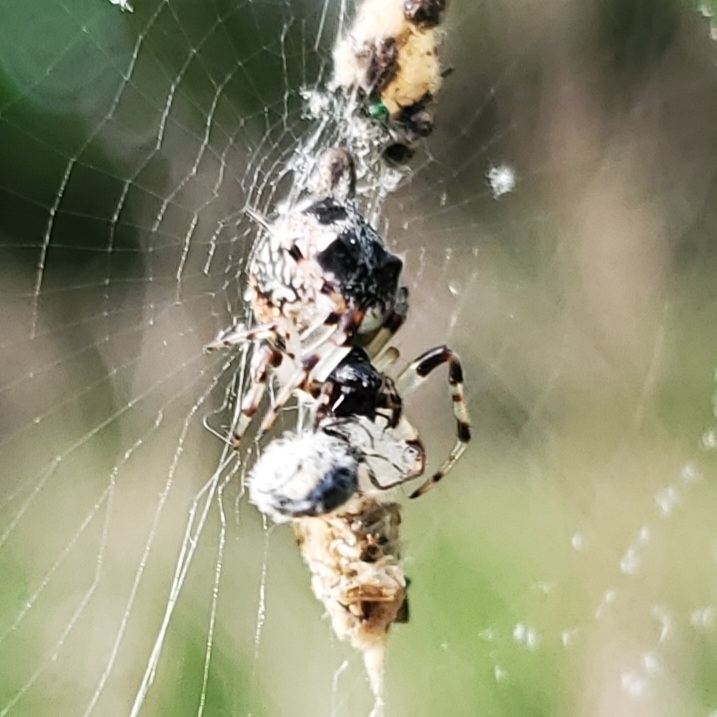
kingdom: Animalia
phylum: Arthropoda
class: Arachnida
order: Araneae
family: Araneidae
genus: Cyclosa
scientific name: Cyclosa turbinata
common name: Orb weavers
